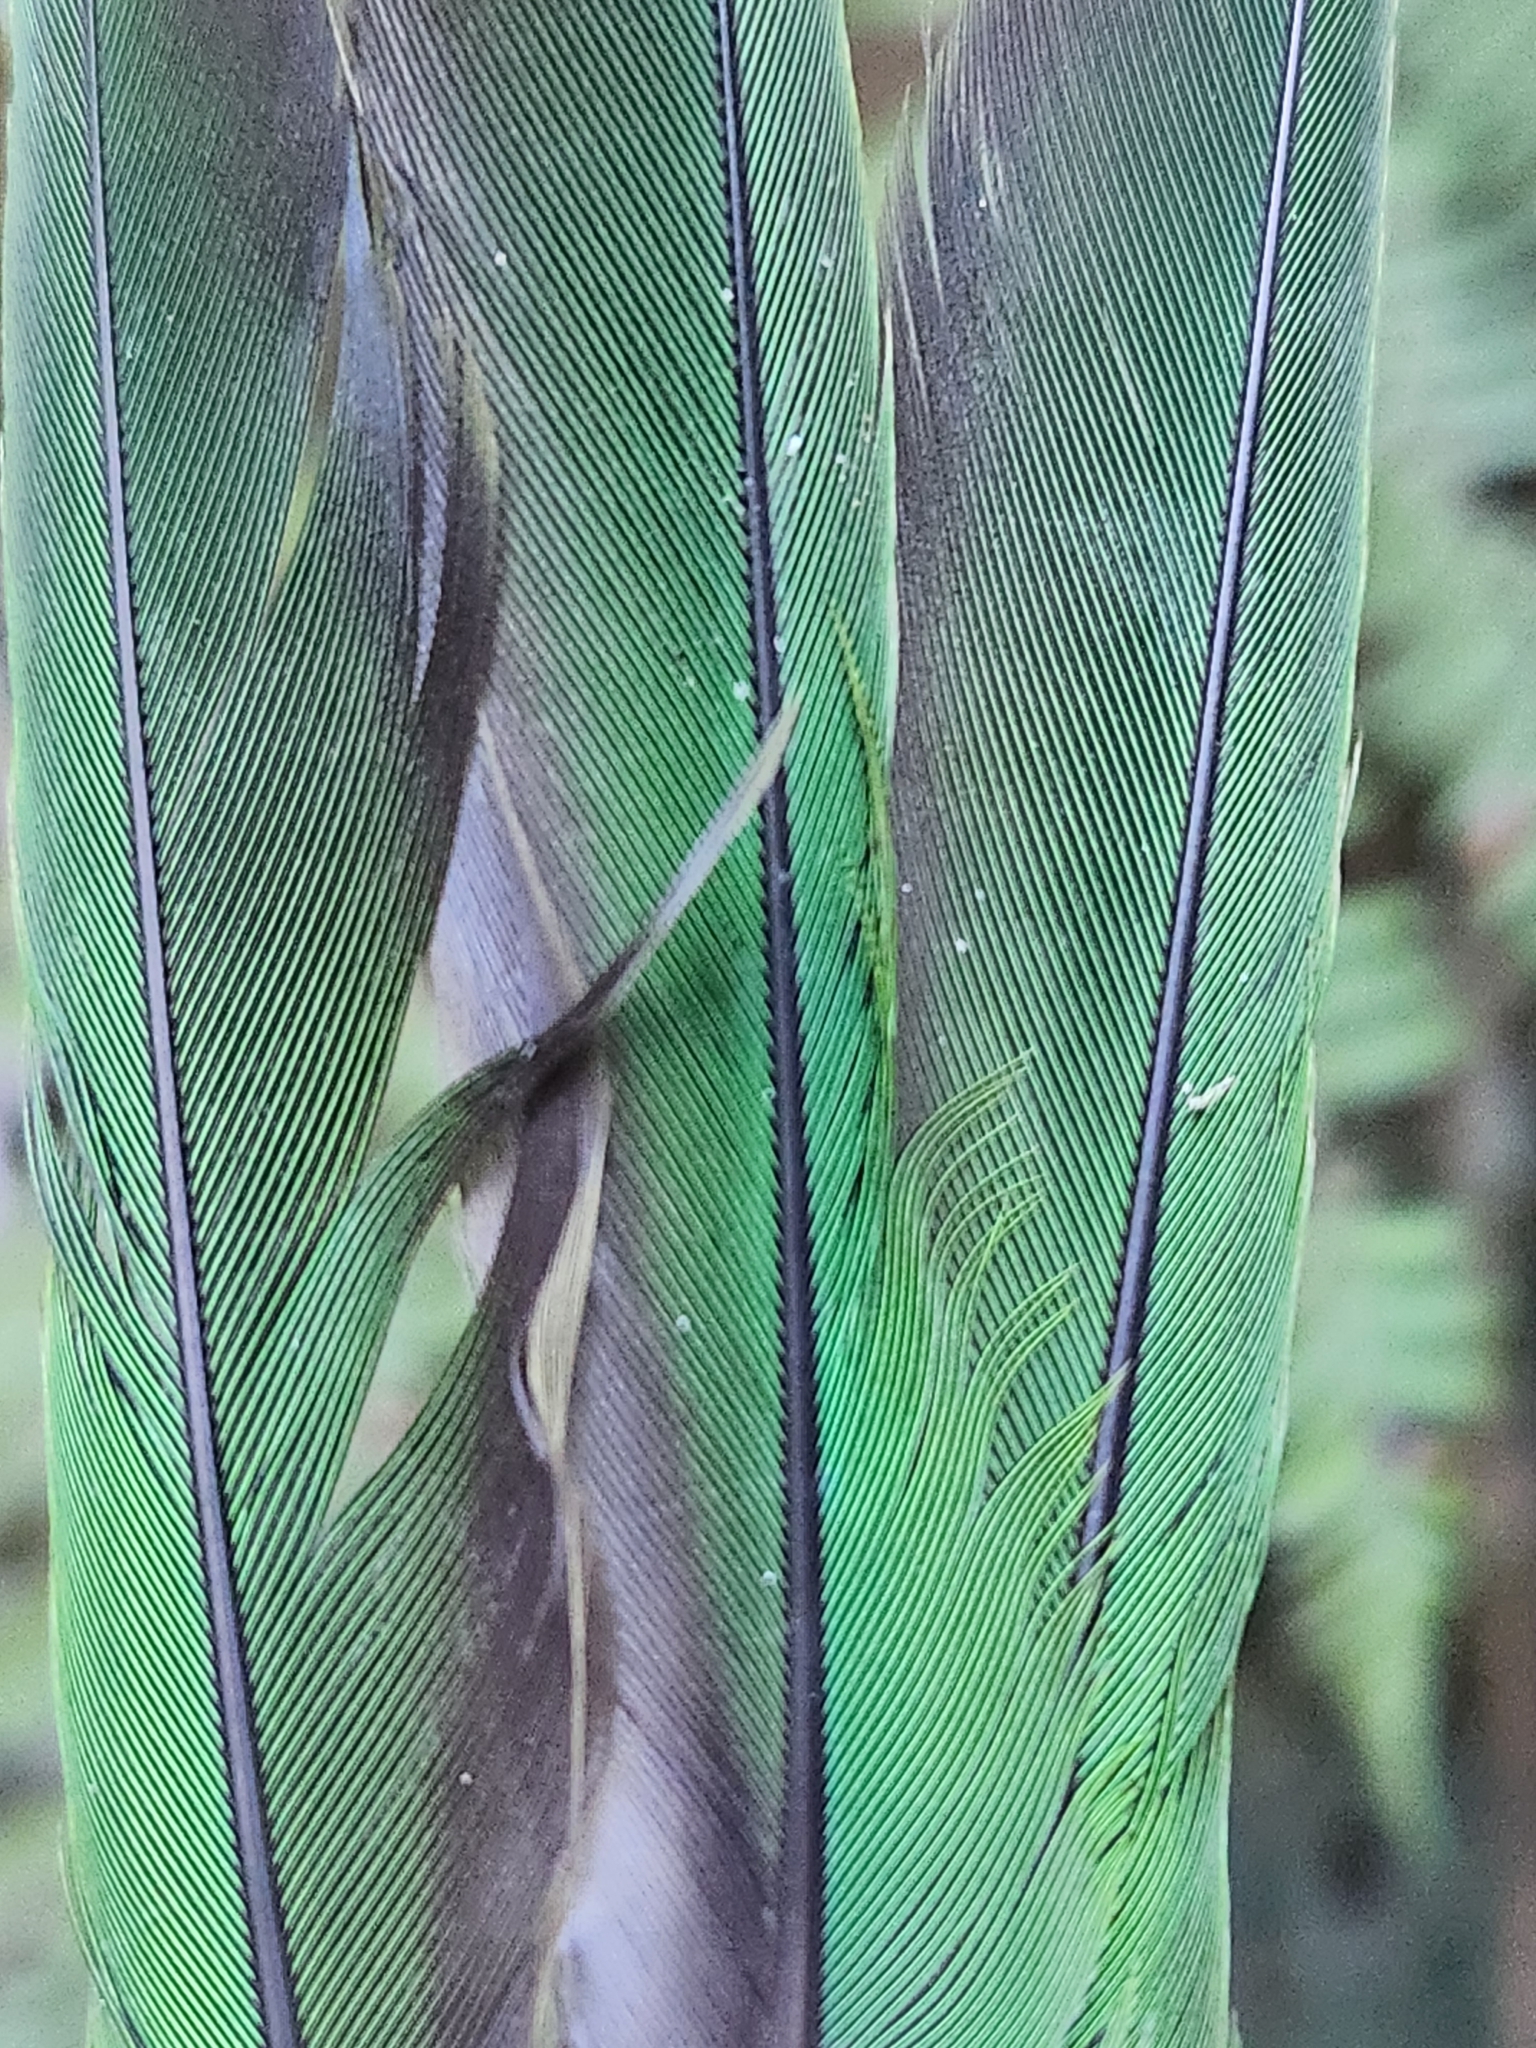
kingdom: Animalia
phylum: Chordata
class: Aves
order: Psittaciformes
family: Psittacidae
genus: Cyanoramphus
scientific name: Cyanoramphus auriceps
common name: Yellow-crowned parakeet
